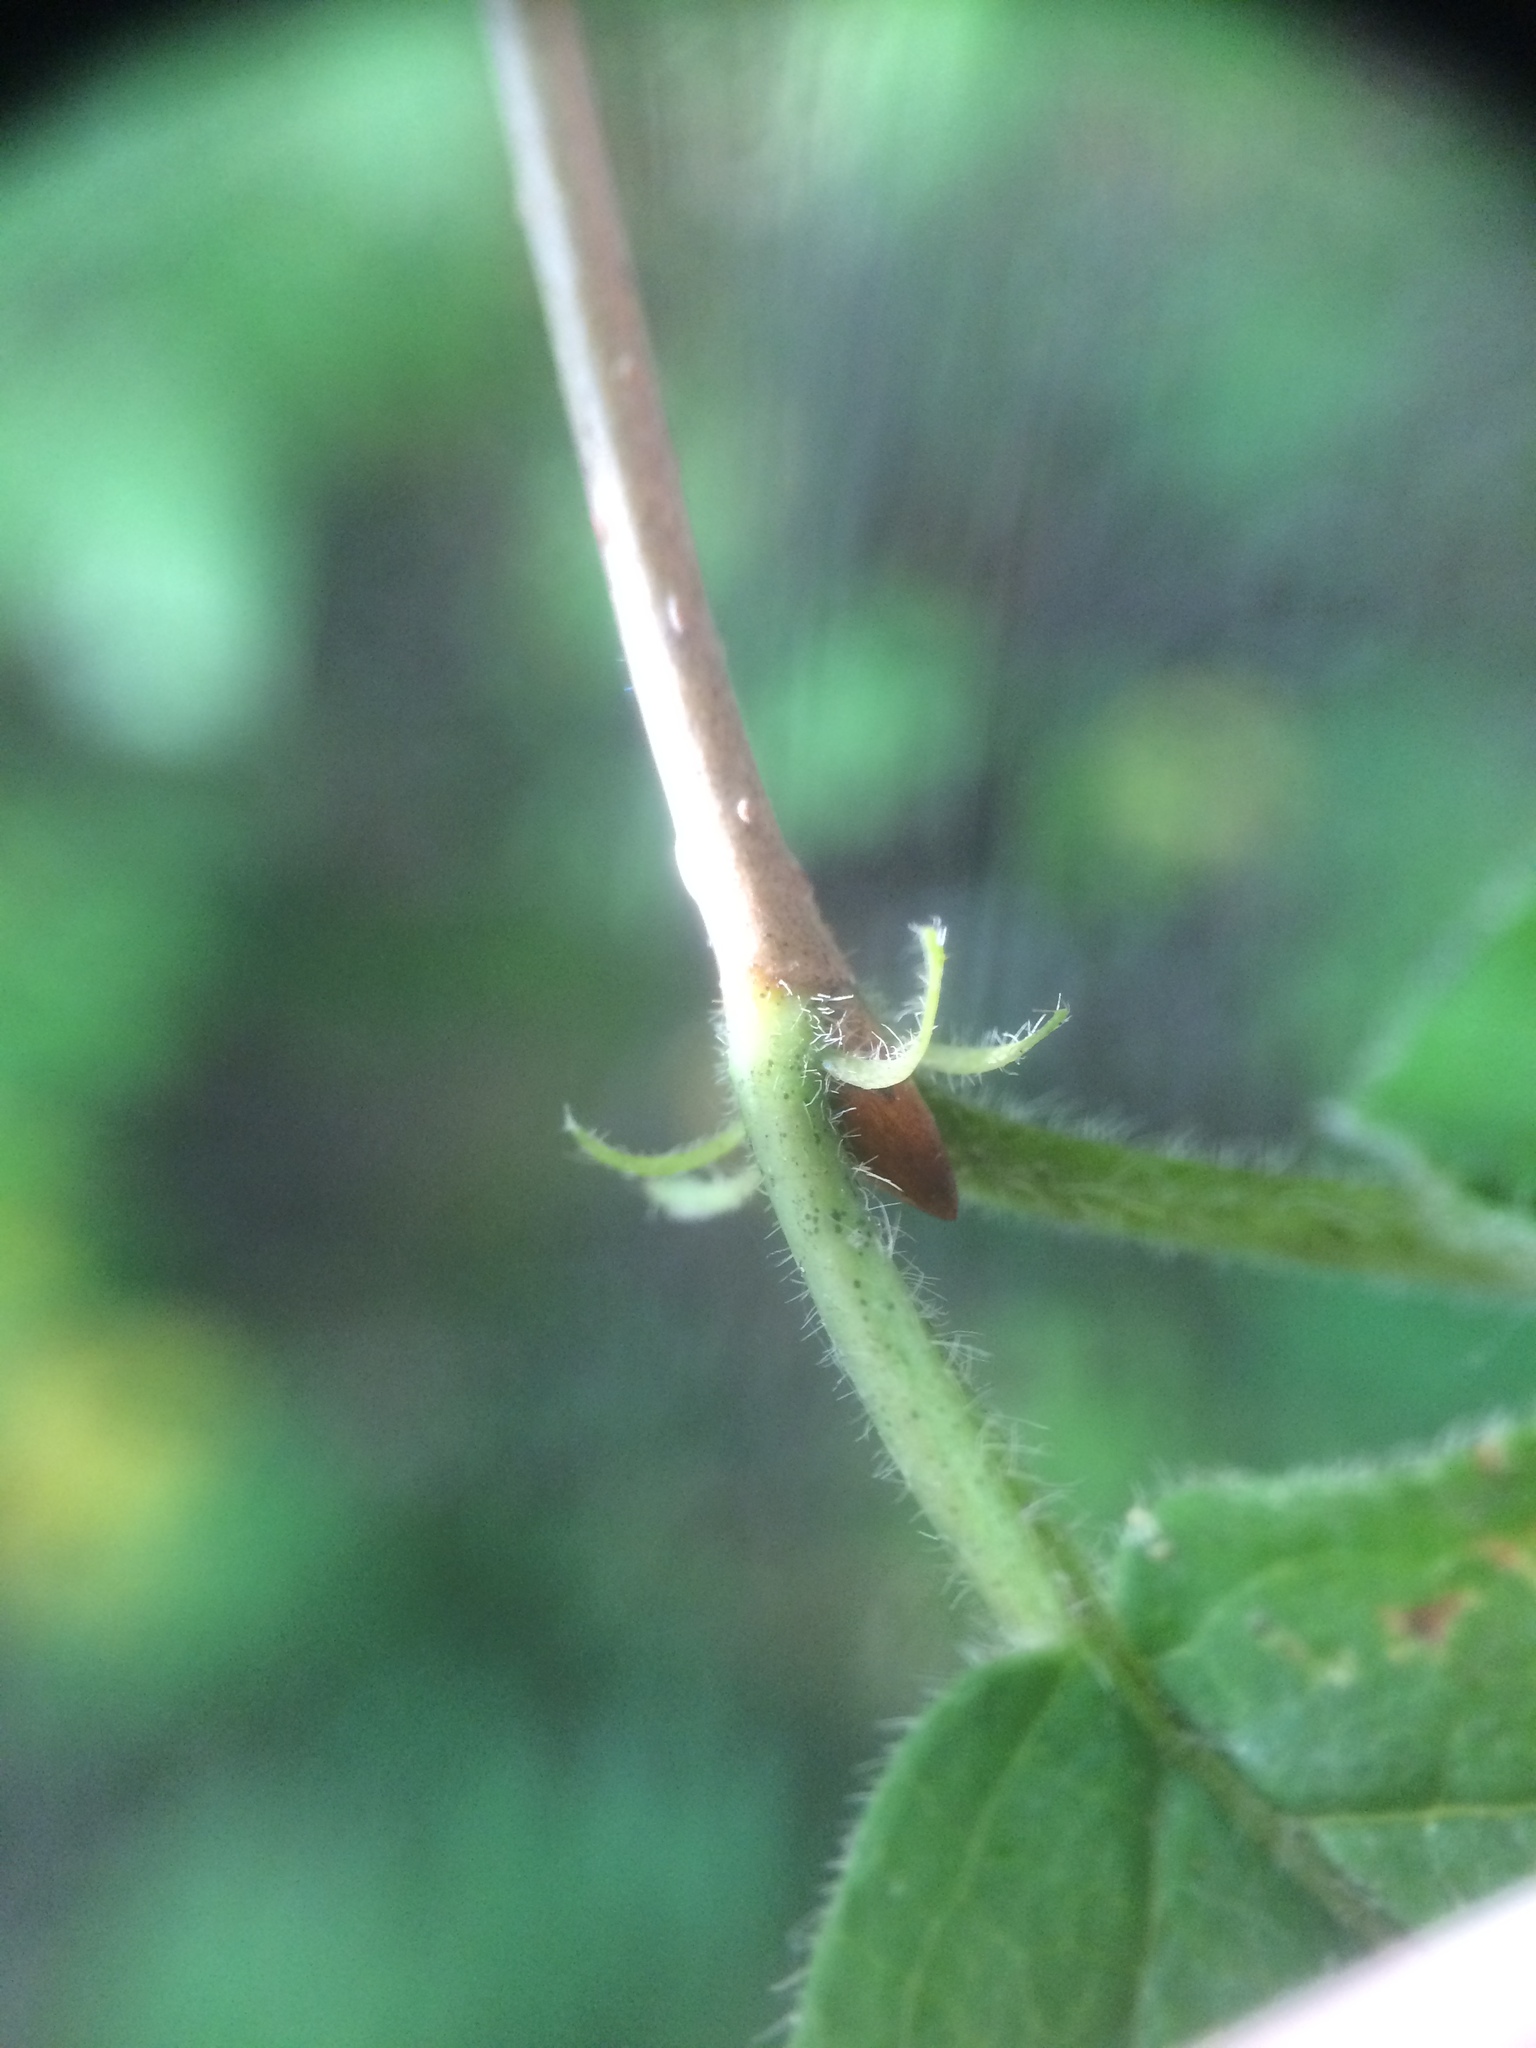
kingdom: Plantae
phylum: Tracheophyta
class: Magnoliopsida
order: Dipsacales
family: Viburnaceae
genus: Viburnum
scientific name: Viburnum rafinesqueanum
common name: Downy arrow-wood
